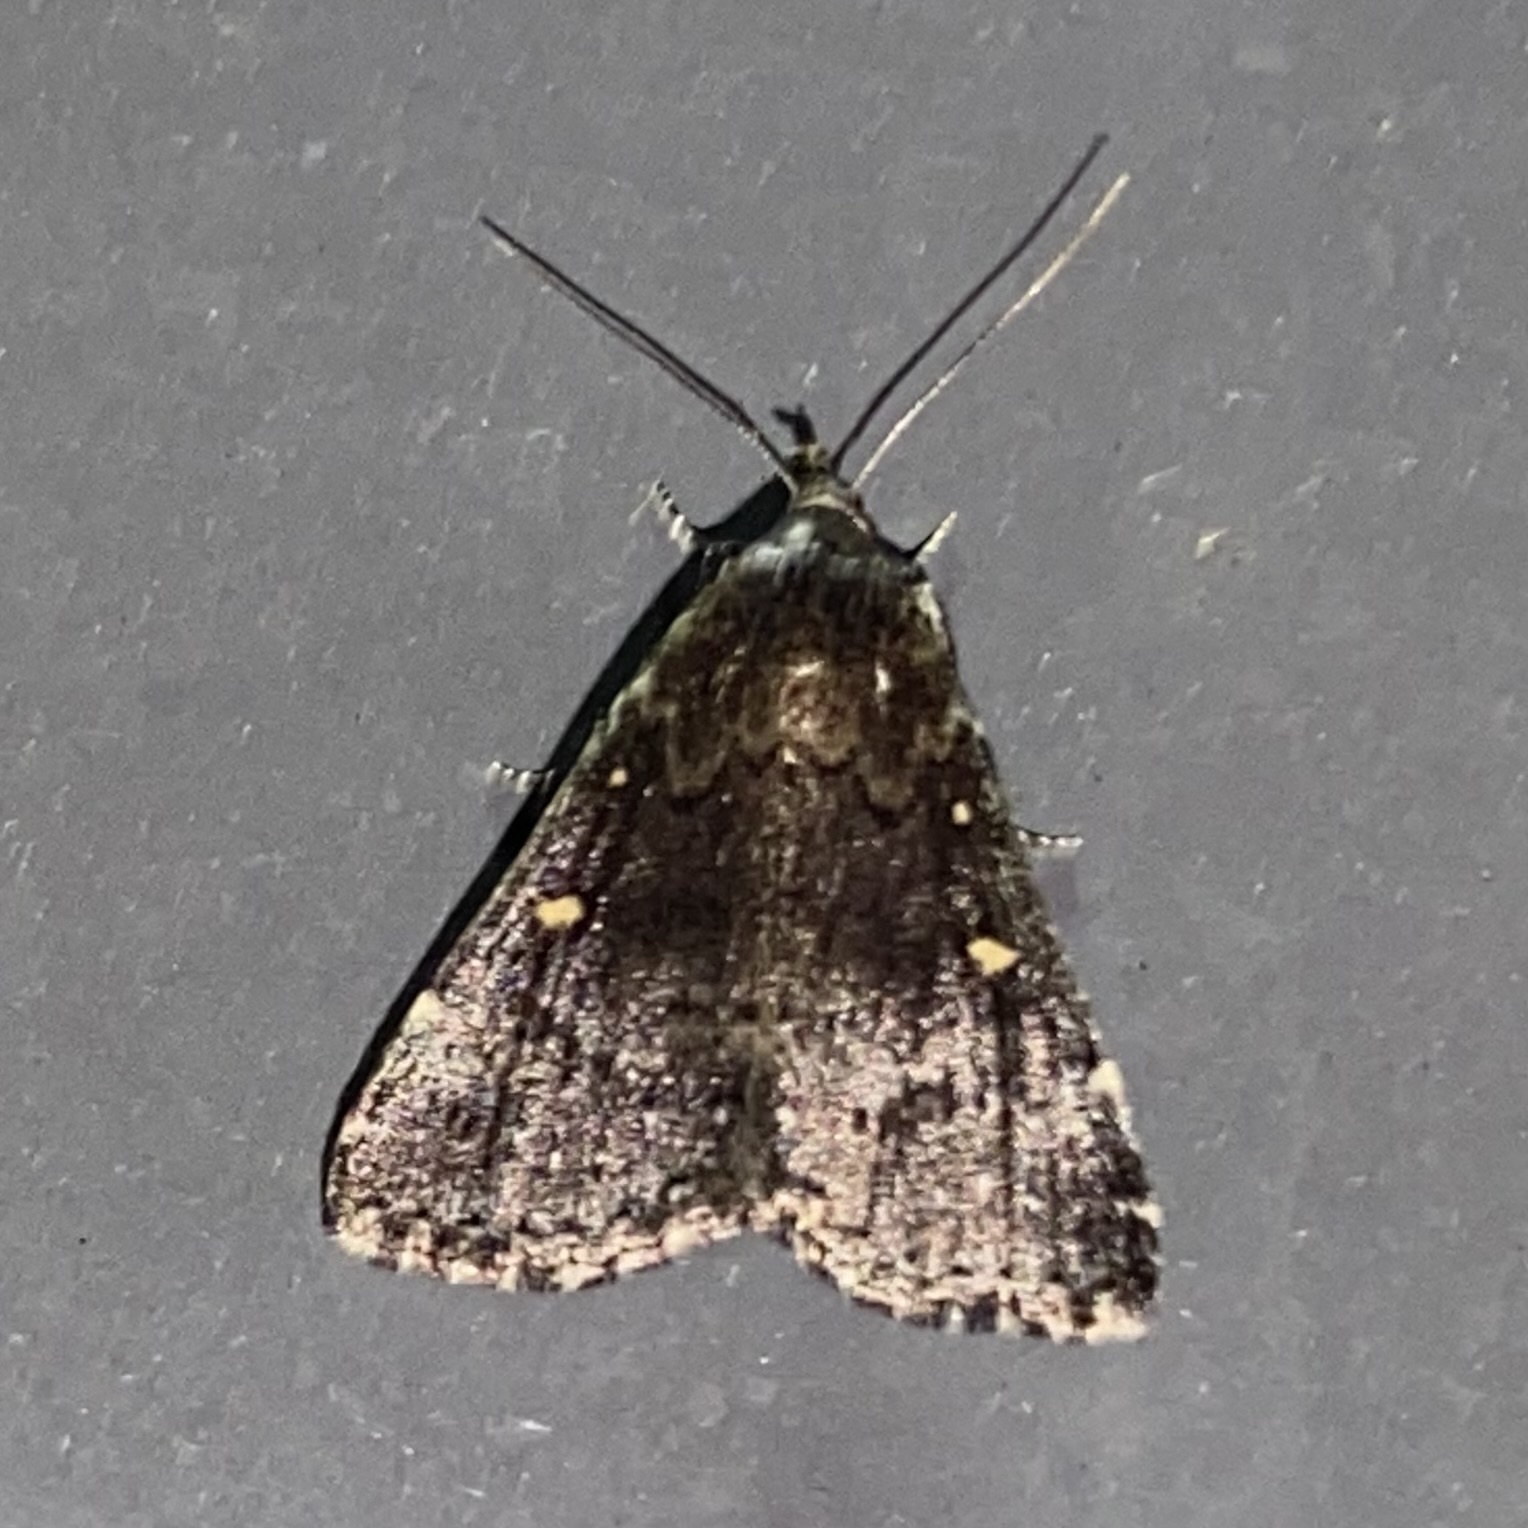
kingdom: Animalia
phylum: Arthropoda
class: Insecta
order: Lepidoptera
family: Erebidae
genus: Tetanolita
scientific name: Tetanolita mynesalis
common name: Smoky tetanolita moth
